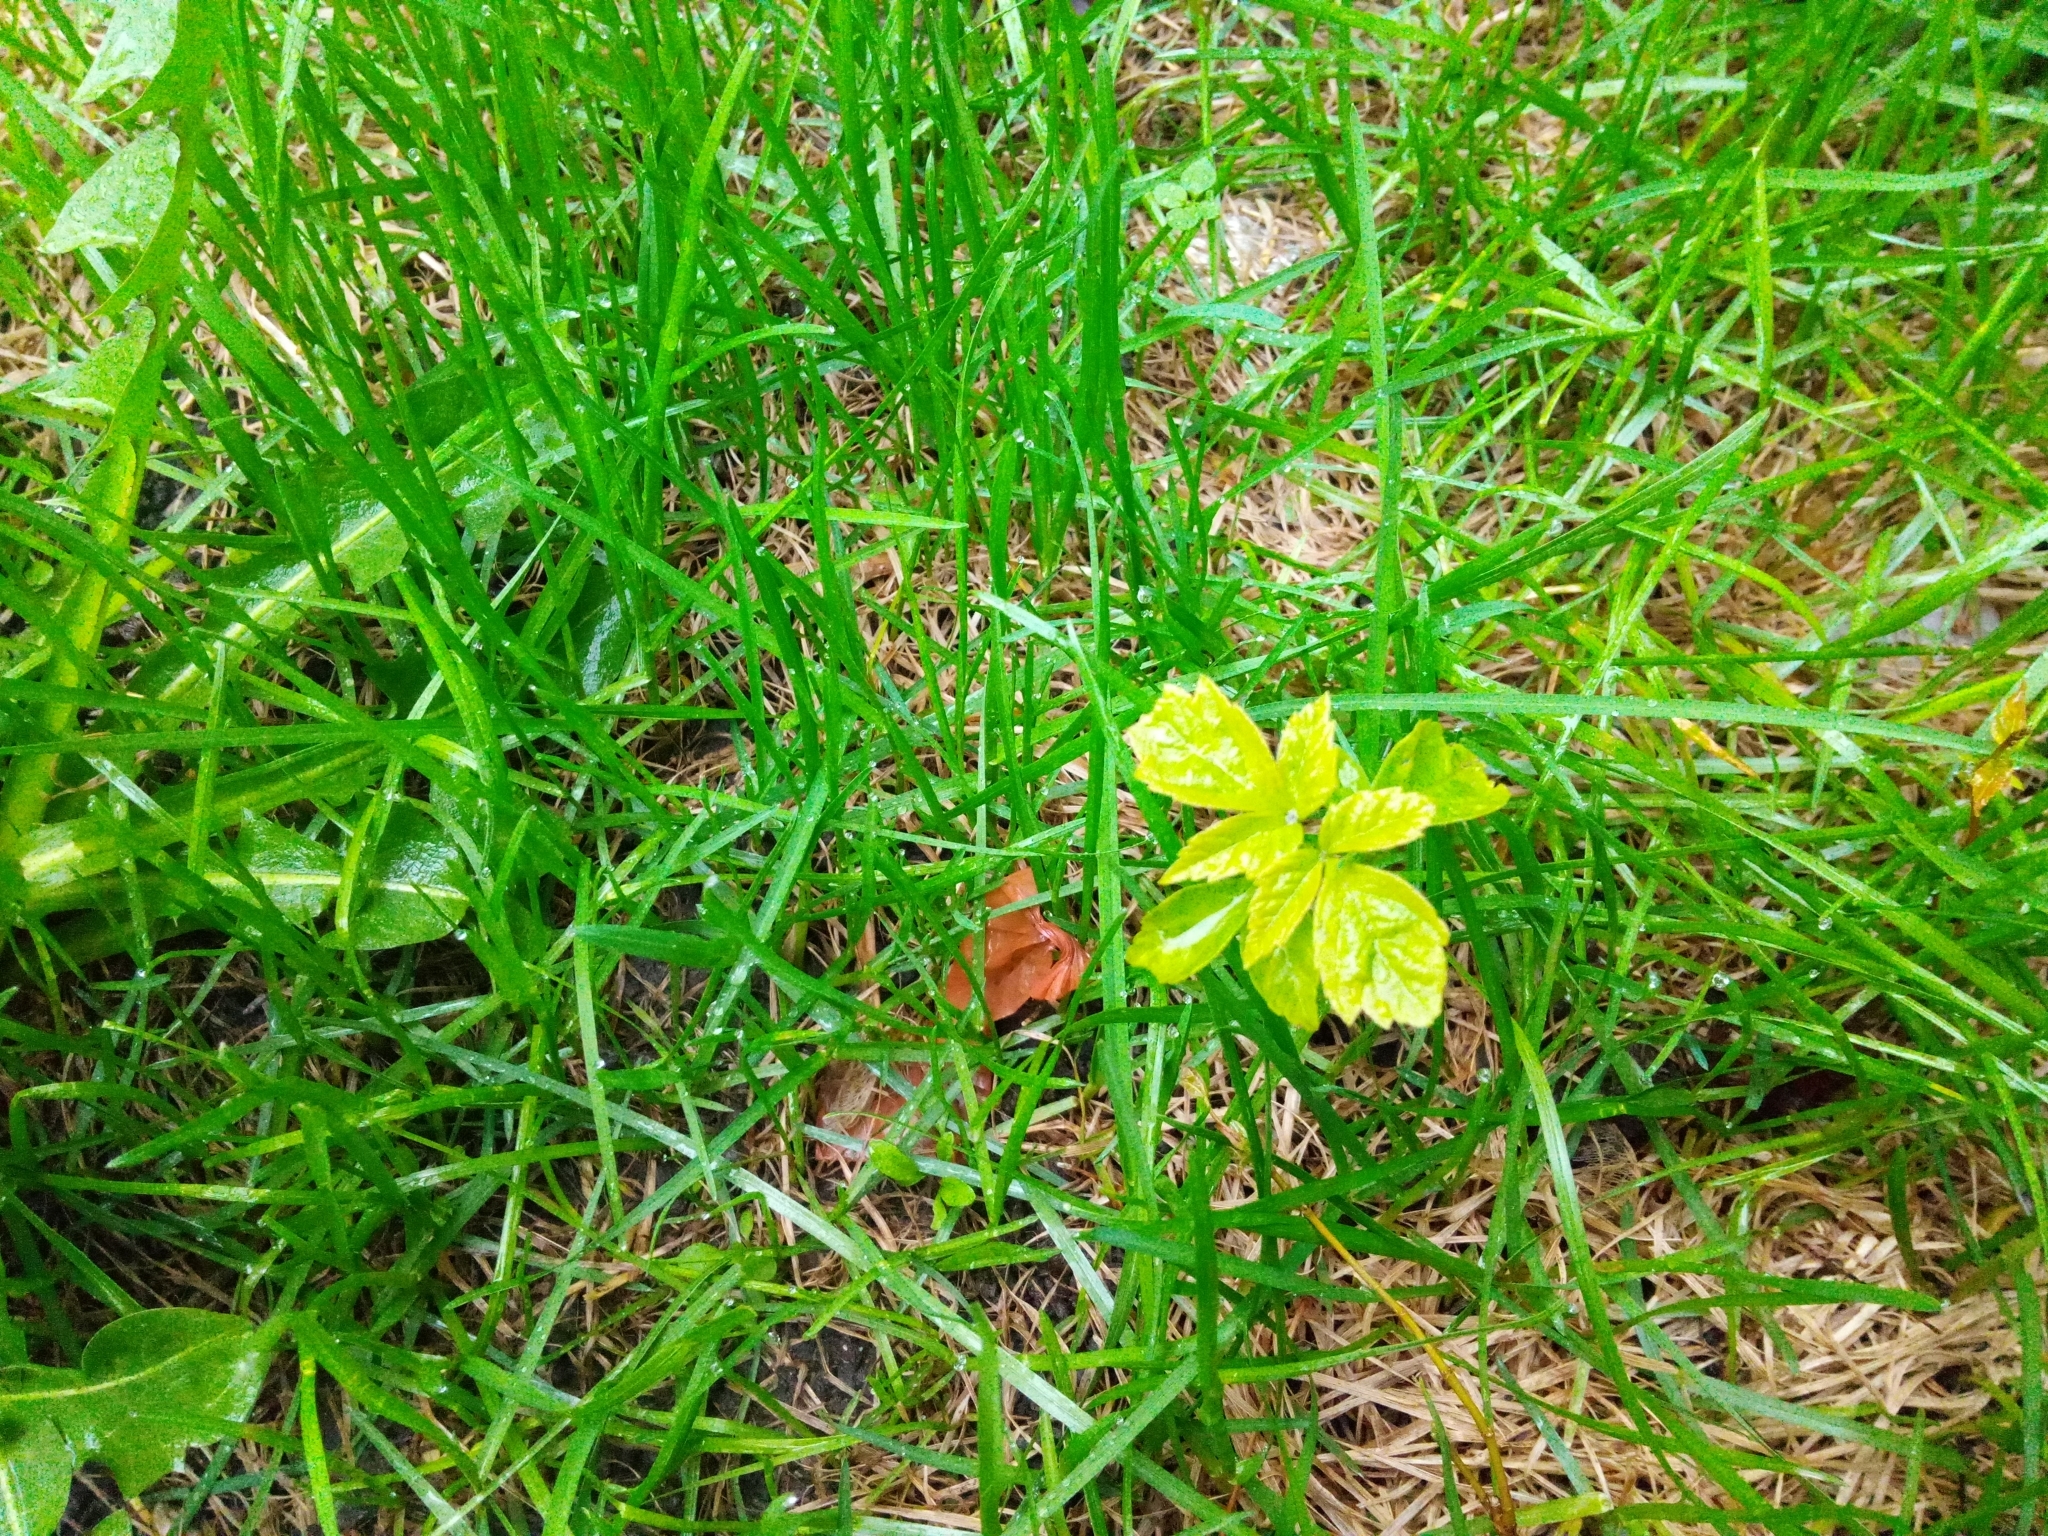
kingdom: Plantae
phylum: Tracheophyta
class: Magnoliopsida
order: Sapindales
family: Sapindaceae
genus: Acer
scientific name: Acer negundo
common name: Ashleaf maple
